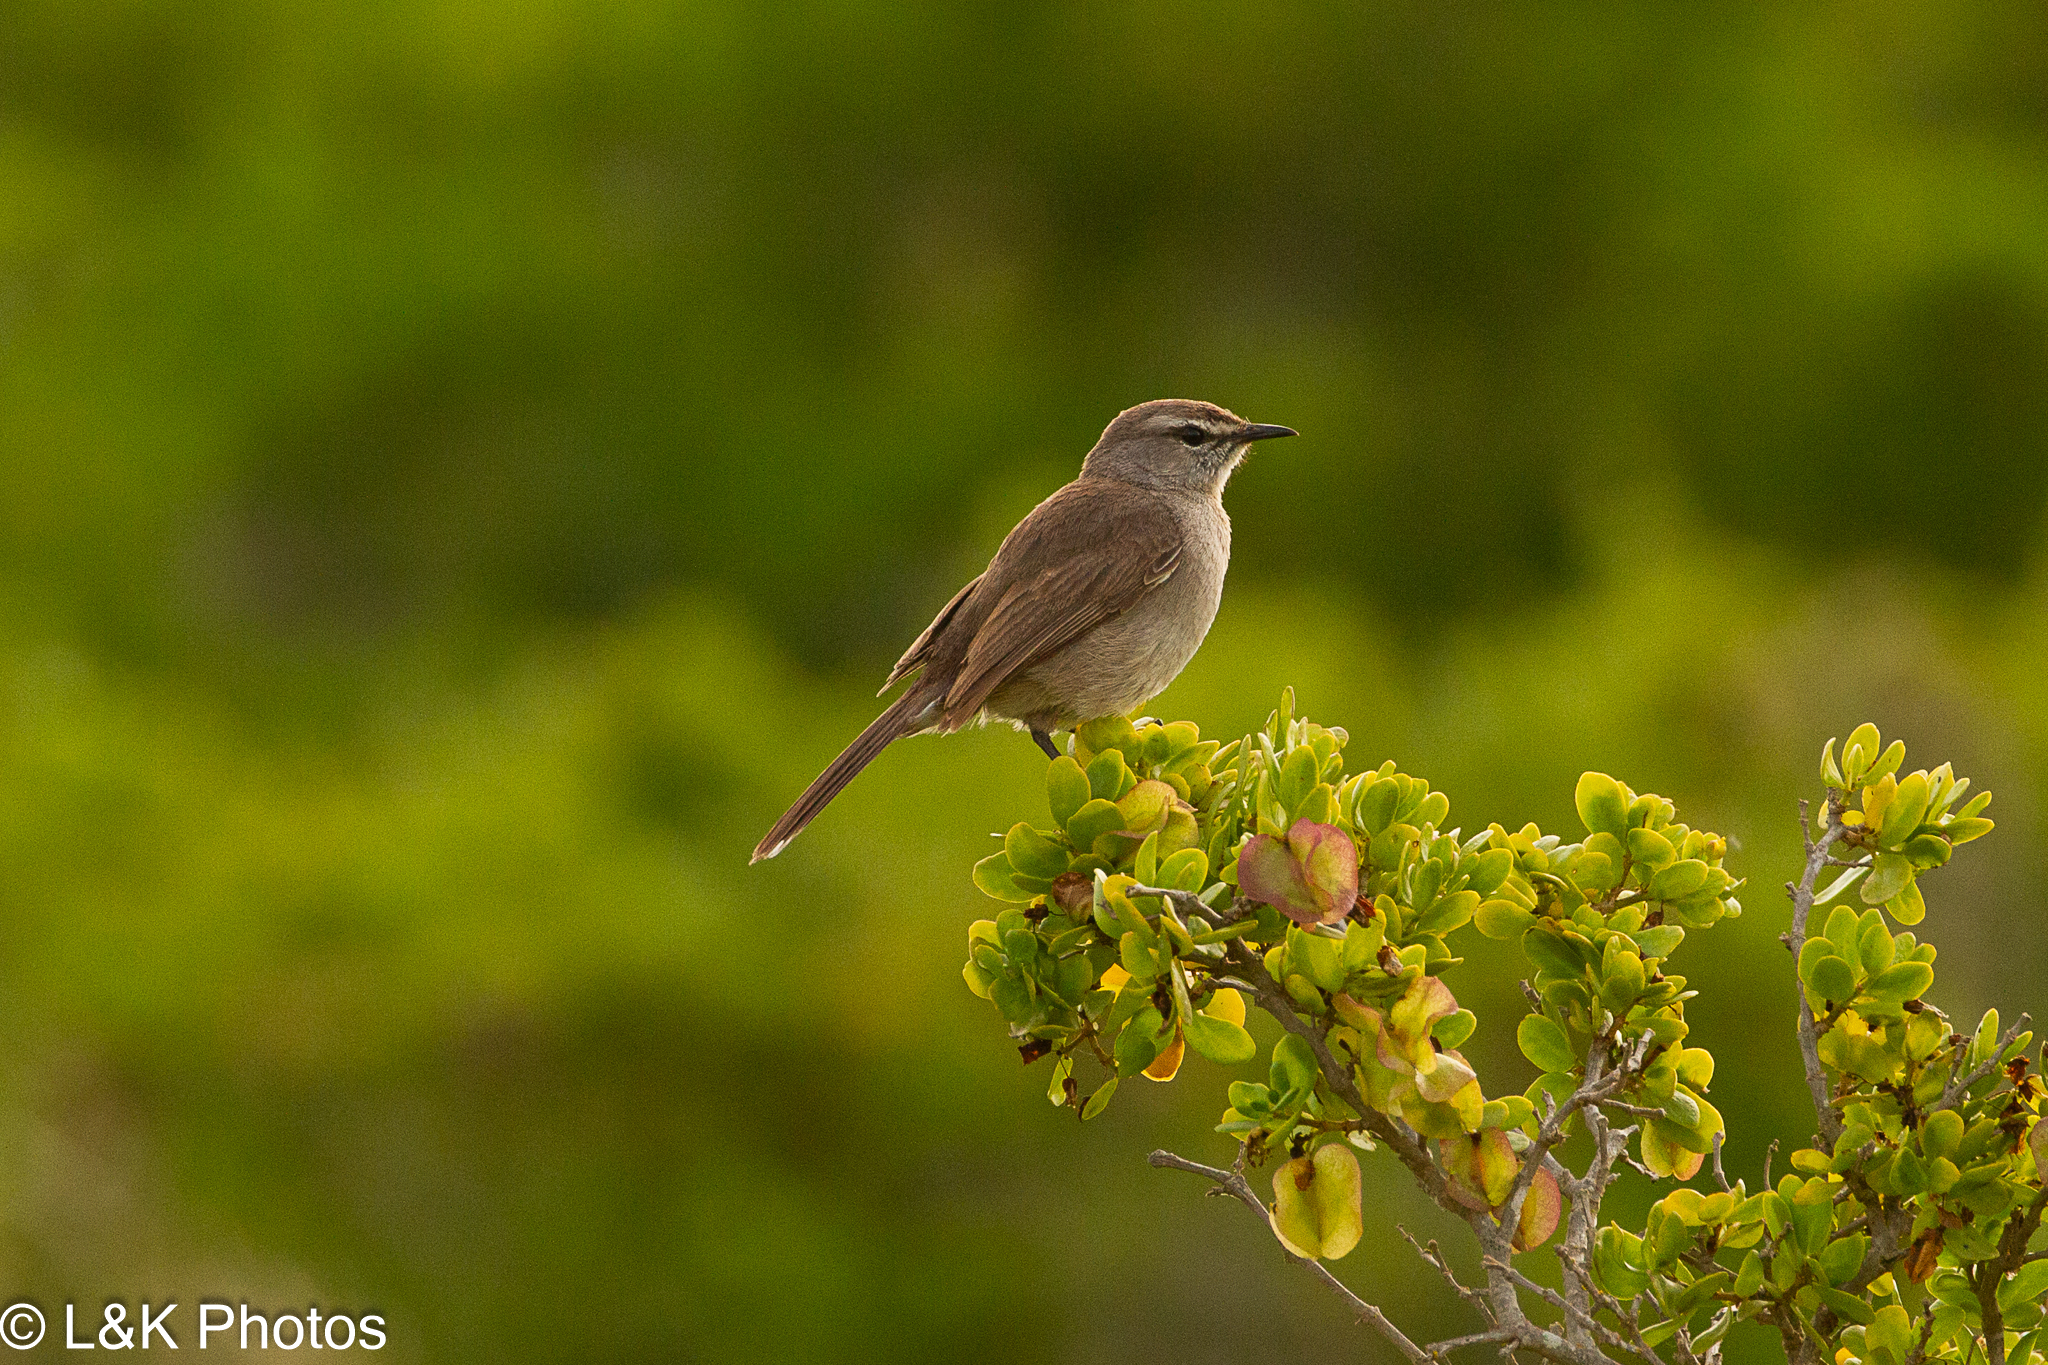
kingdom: Animalia
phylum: Chordata
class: Aves
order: Passeriformes
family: Muscicapidae
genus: Erythropygia
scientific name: Erythropygia coryphoeus
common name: Karoo scrub robin
